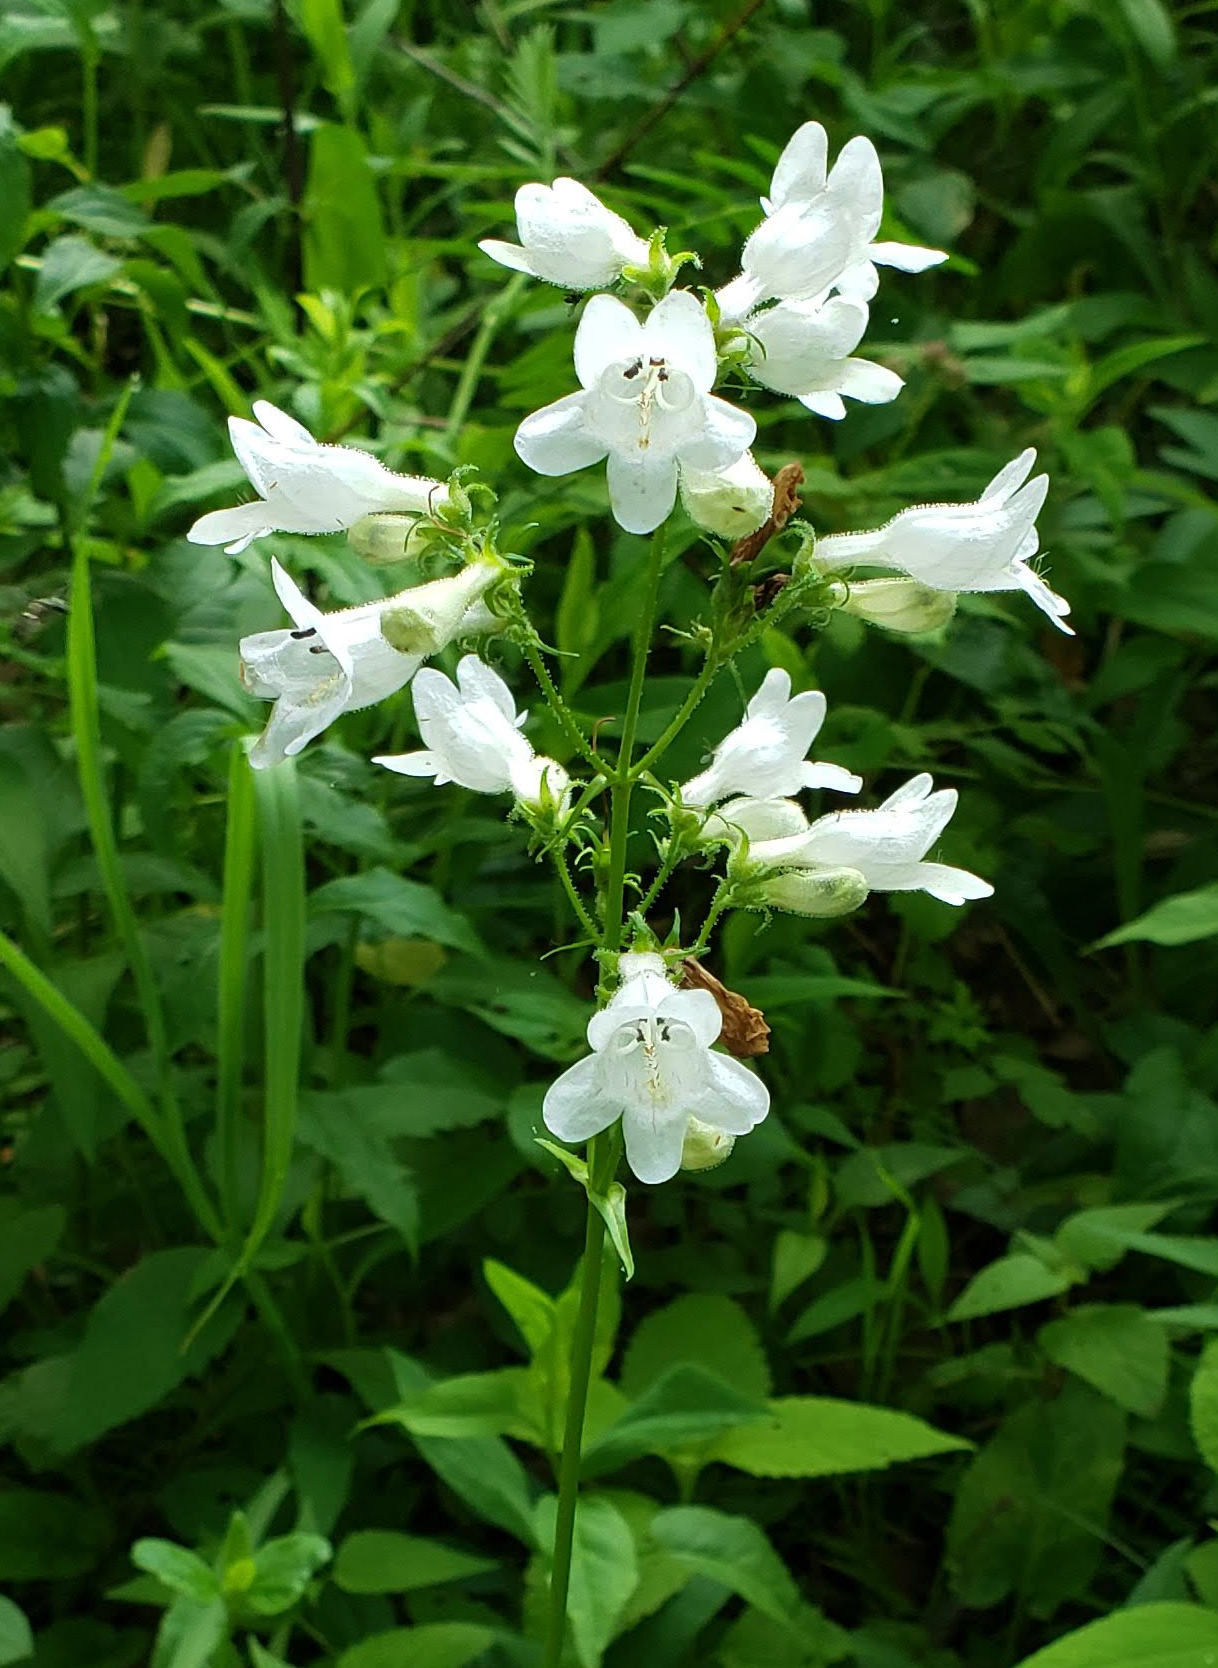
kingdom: Plantae
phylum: Tracheophyta
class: Magnoliopsida
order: Lamiales
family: Plantaginaceae
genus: Penstemon
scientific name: Penstemon digitalis
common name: Foxglove beardtongue
